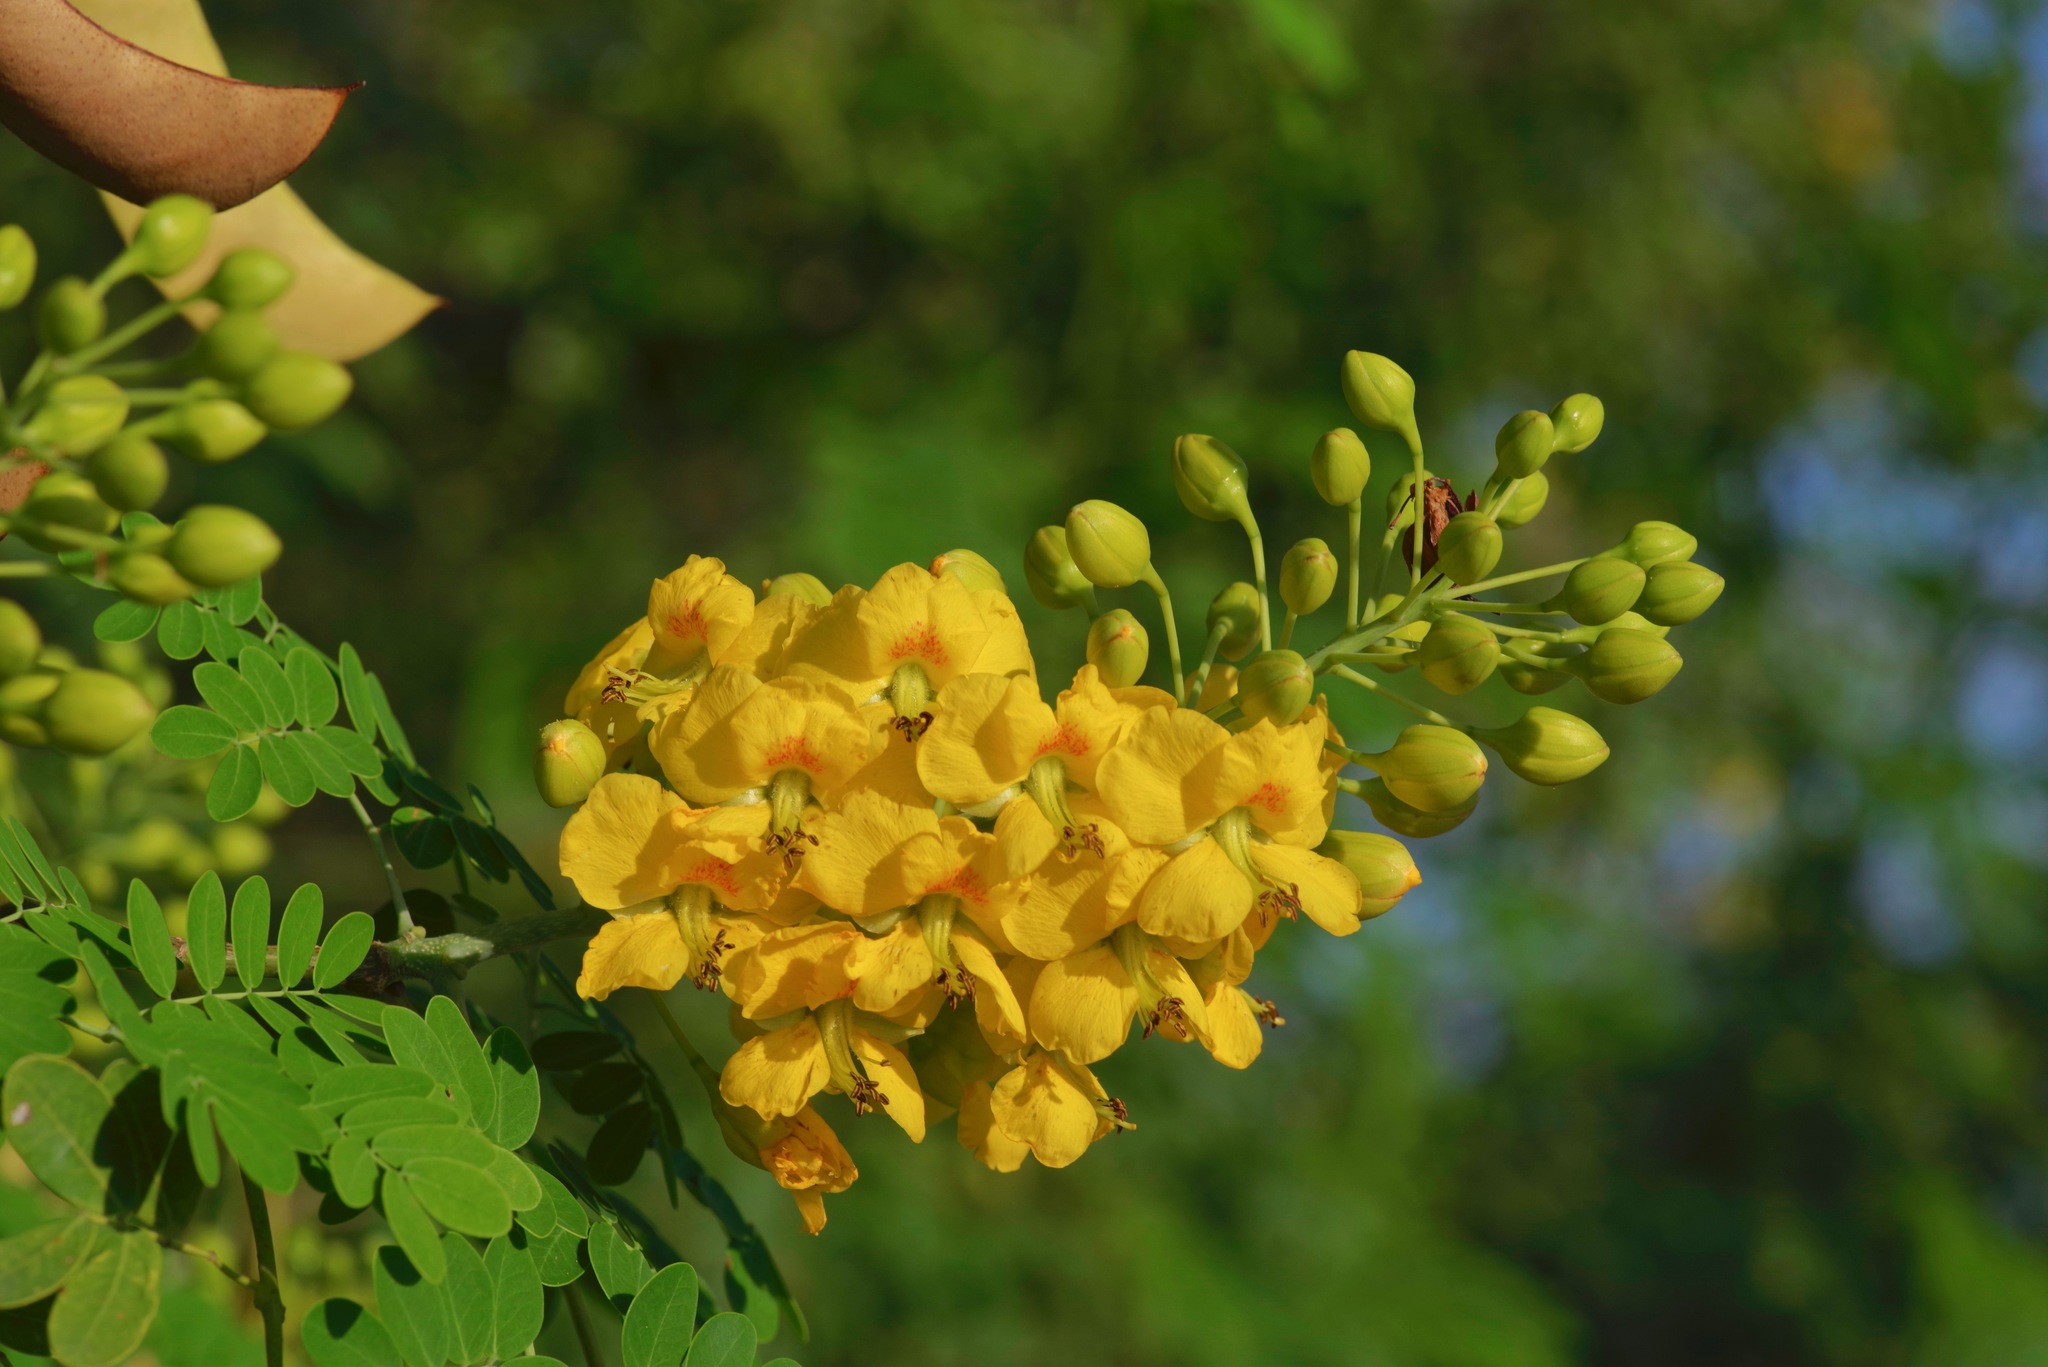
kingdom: Plantae
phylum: Tracheophyta
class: Magnoliopsida
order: Fabales
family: Fabaceae
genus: Erythrostemon
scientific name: Erythrostemon mexicanus
